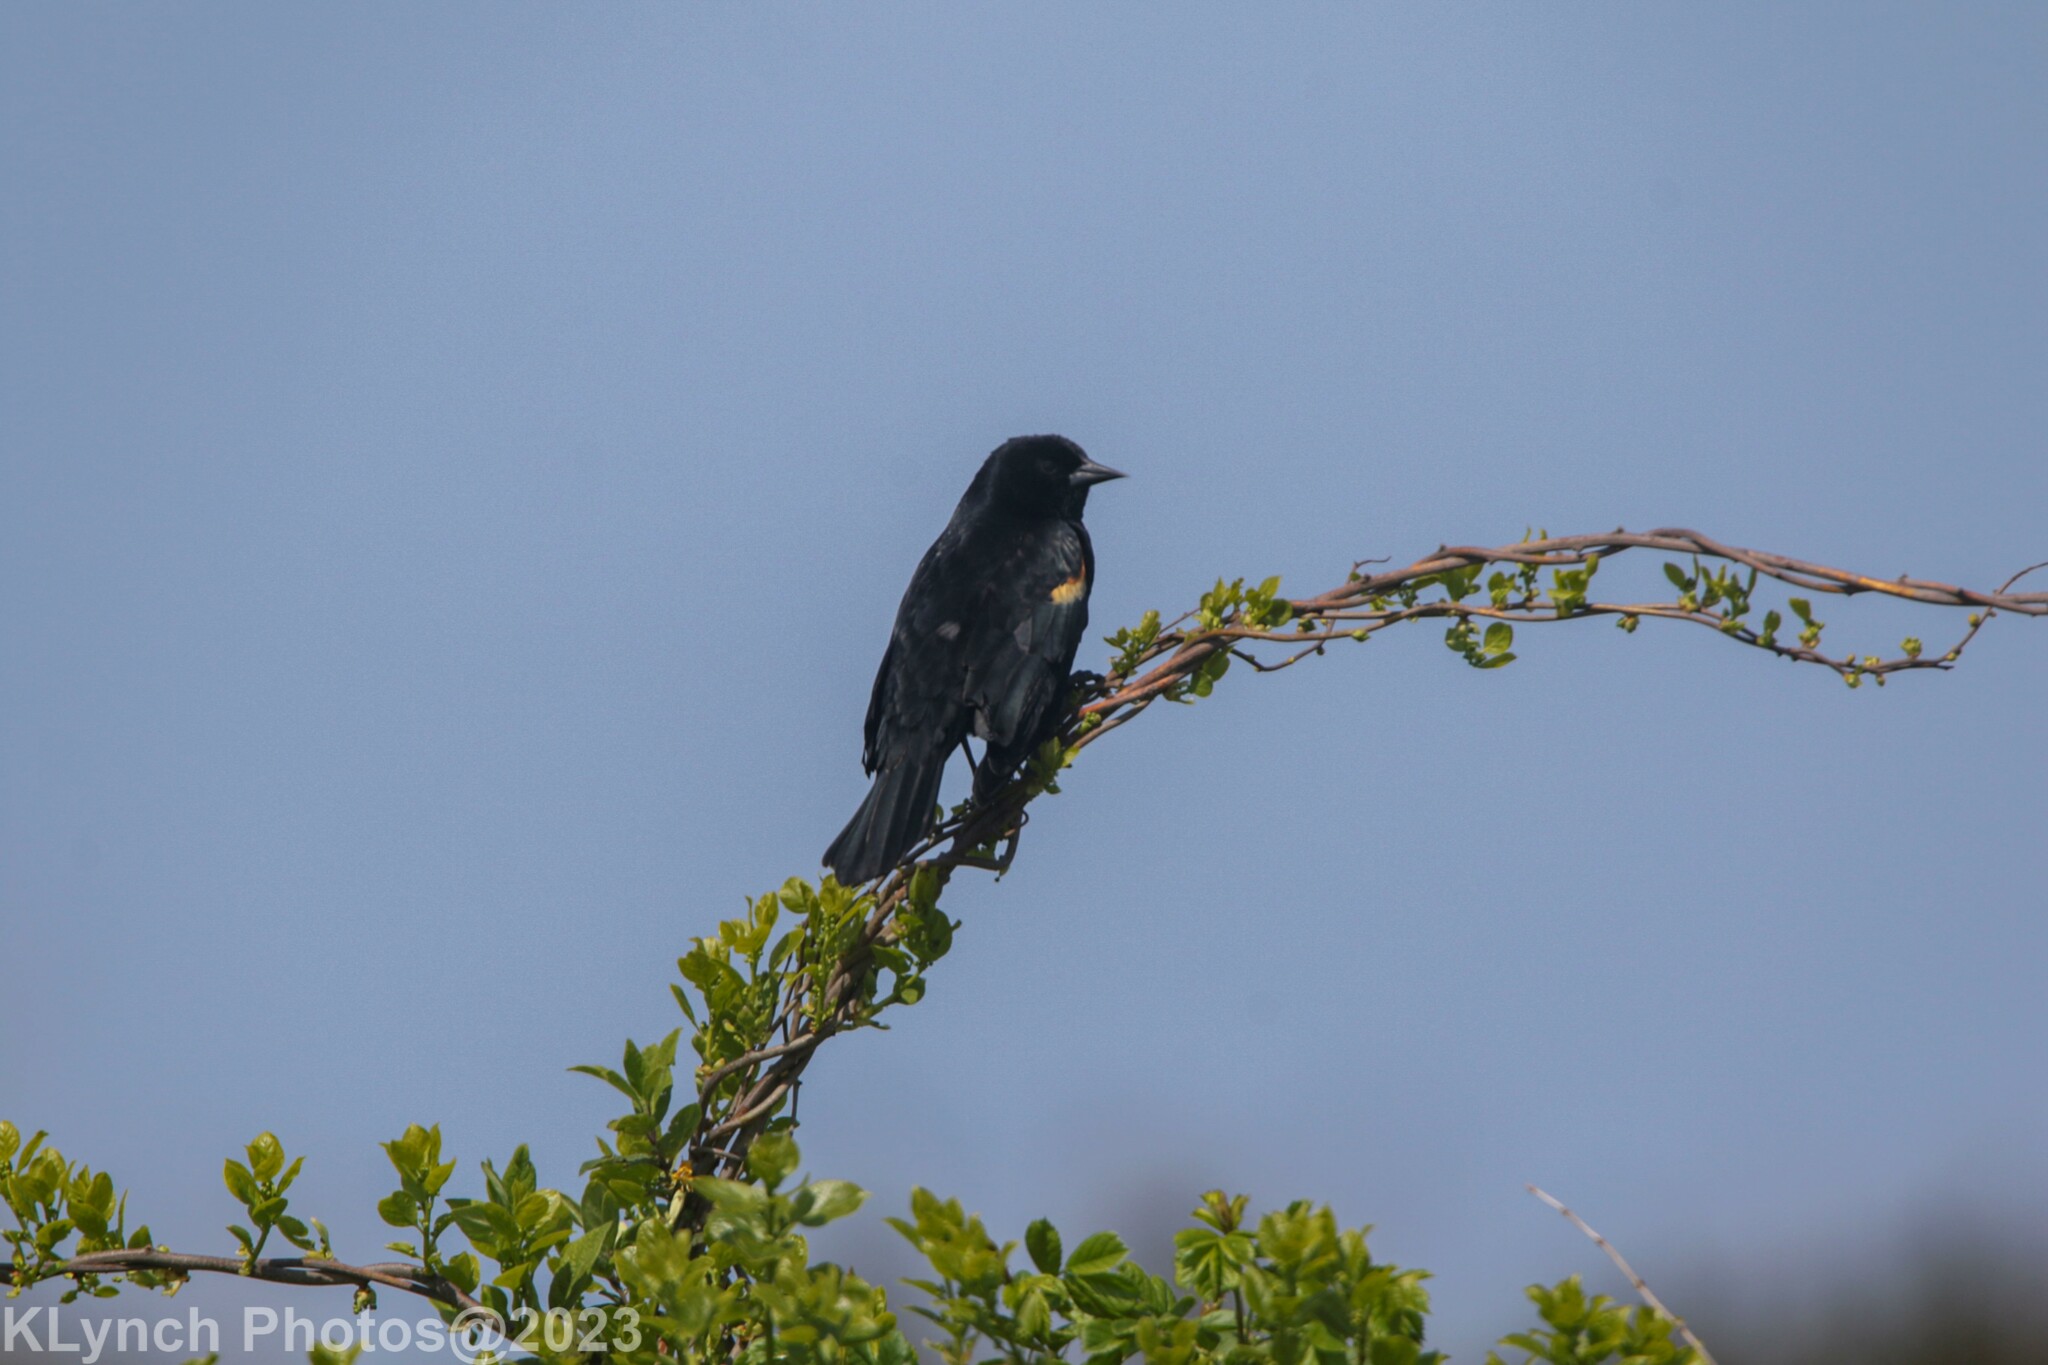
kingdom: Animalia
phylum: Chordata
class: Aves
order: Passeriformes
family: Icteridae
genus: Agelaius
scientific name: Agelaius phoeniceus
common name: Red-winged blackbird
